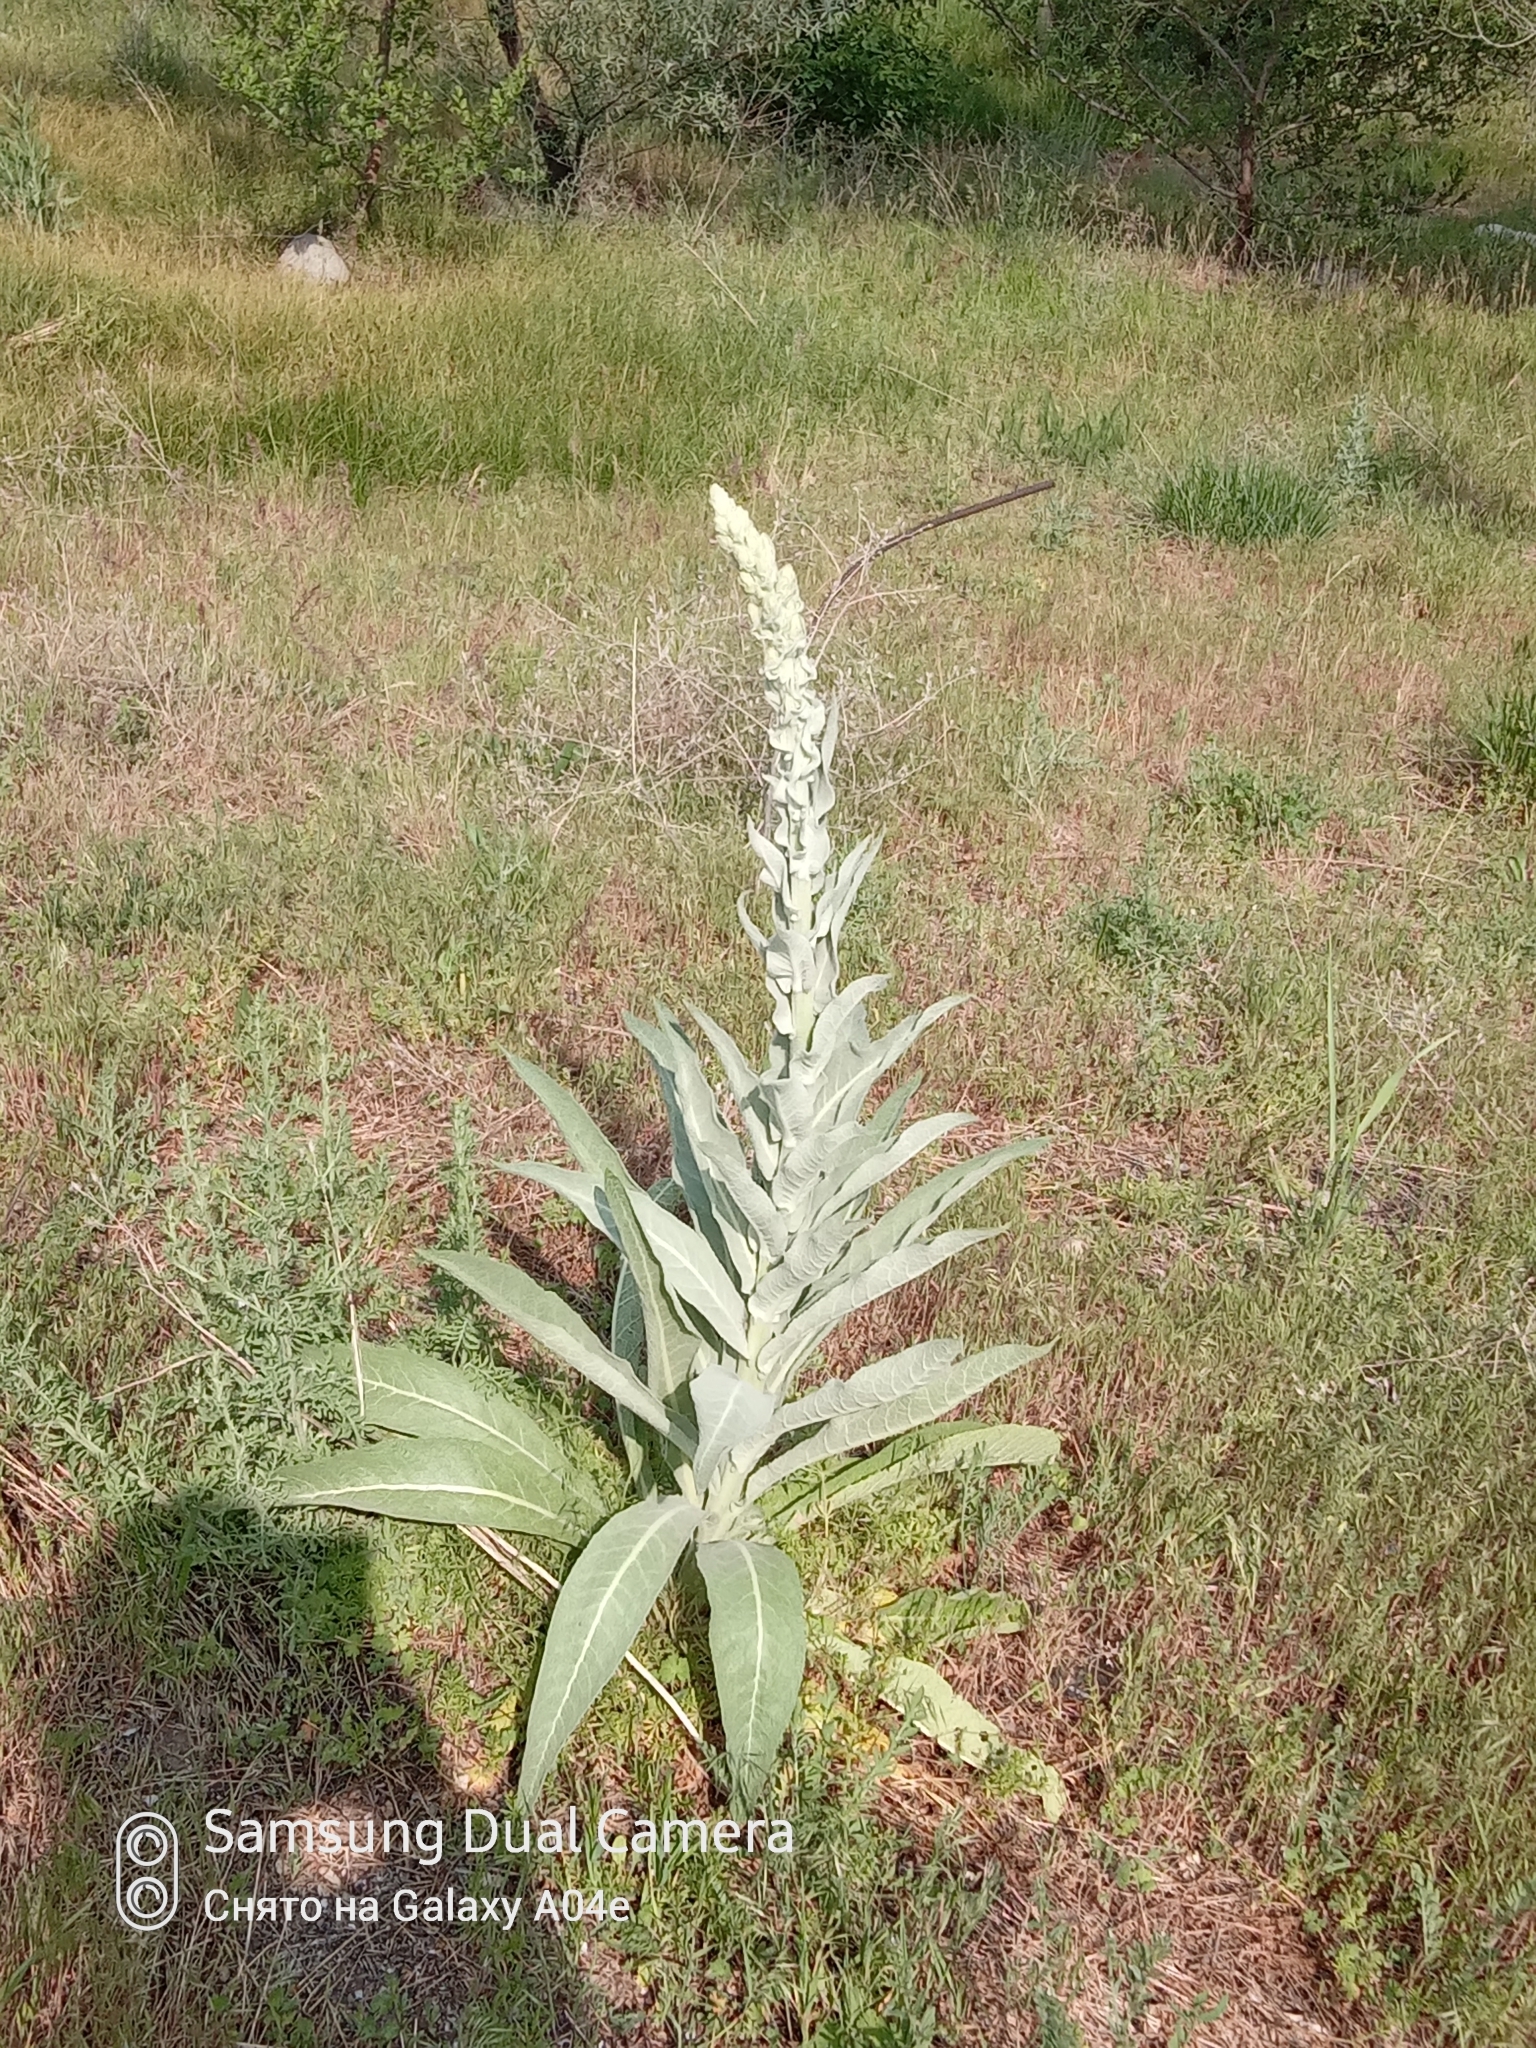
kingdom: Plantae
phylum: Tracheophyta
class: Magnoliopsida
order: Lamiales
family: Scrophulariaceae
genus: Verbascum
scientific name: Verbascum songaricum
